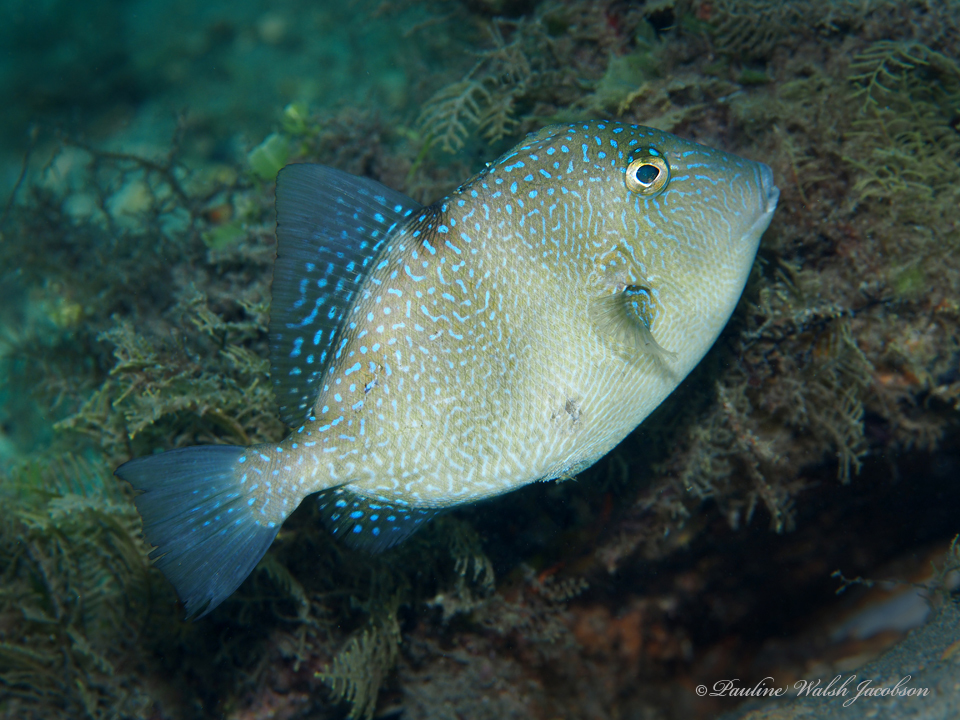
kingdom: Animalia
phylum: Chordata
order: Tetraodontiformes
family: Balistidae
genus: Balistes
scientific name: Balistes capriscus
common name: Grey triggerfish
